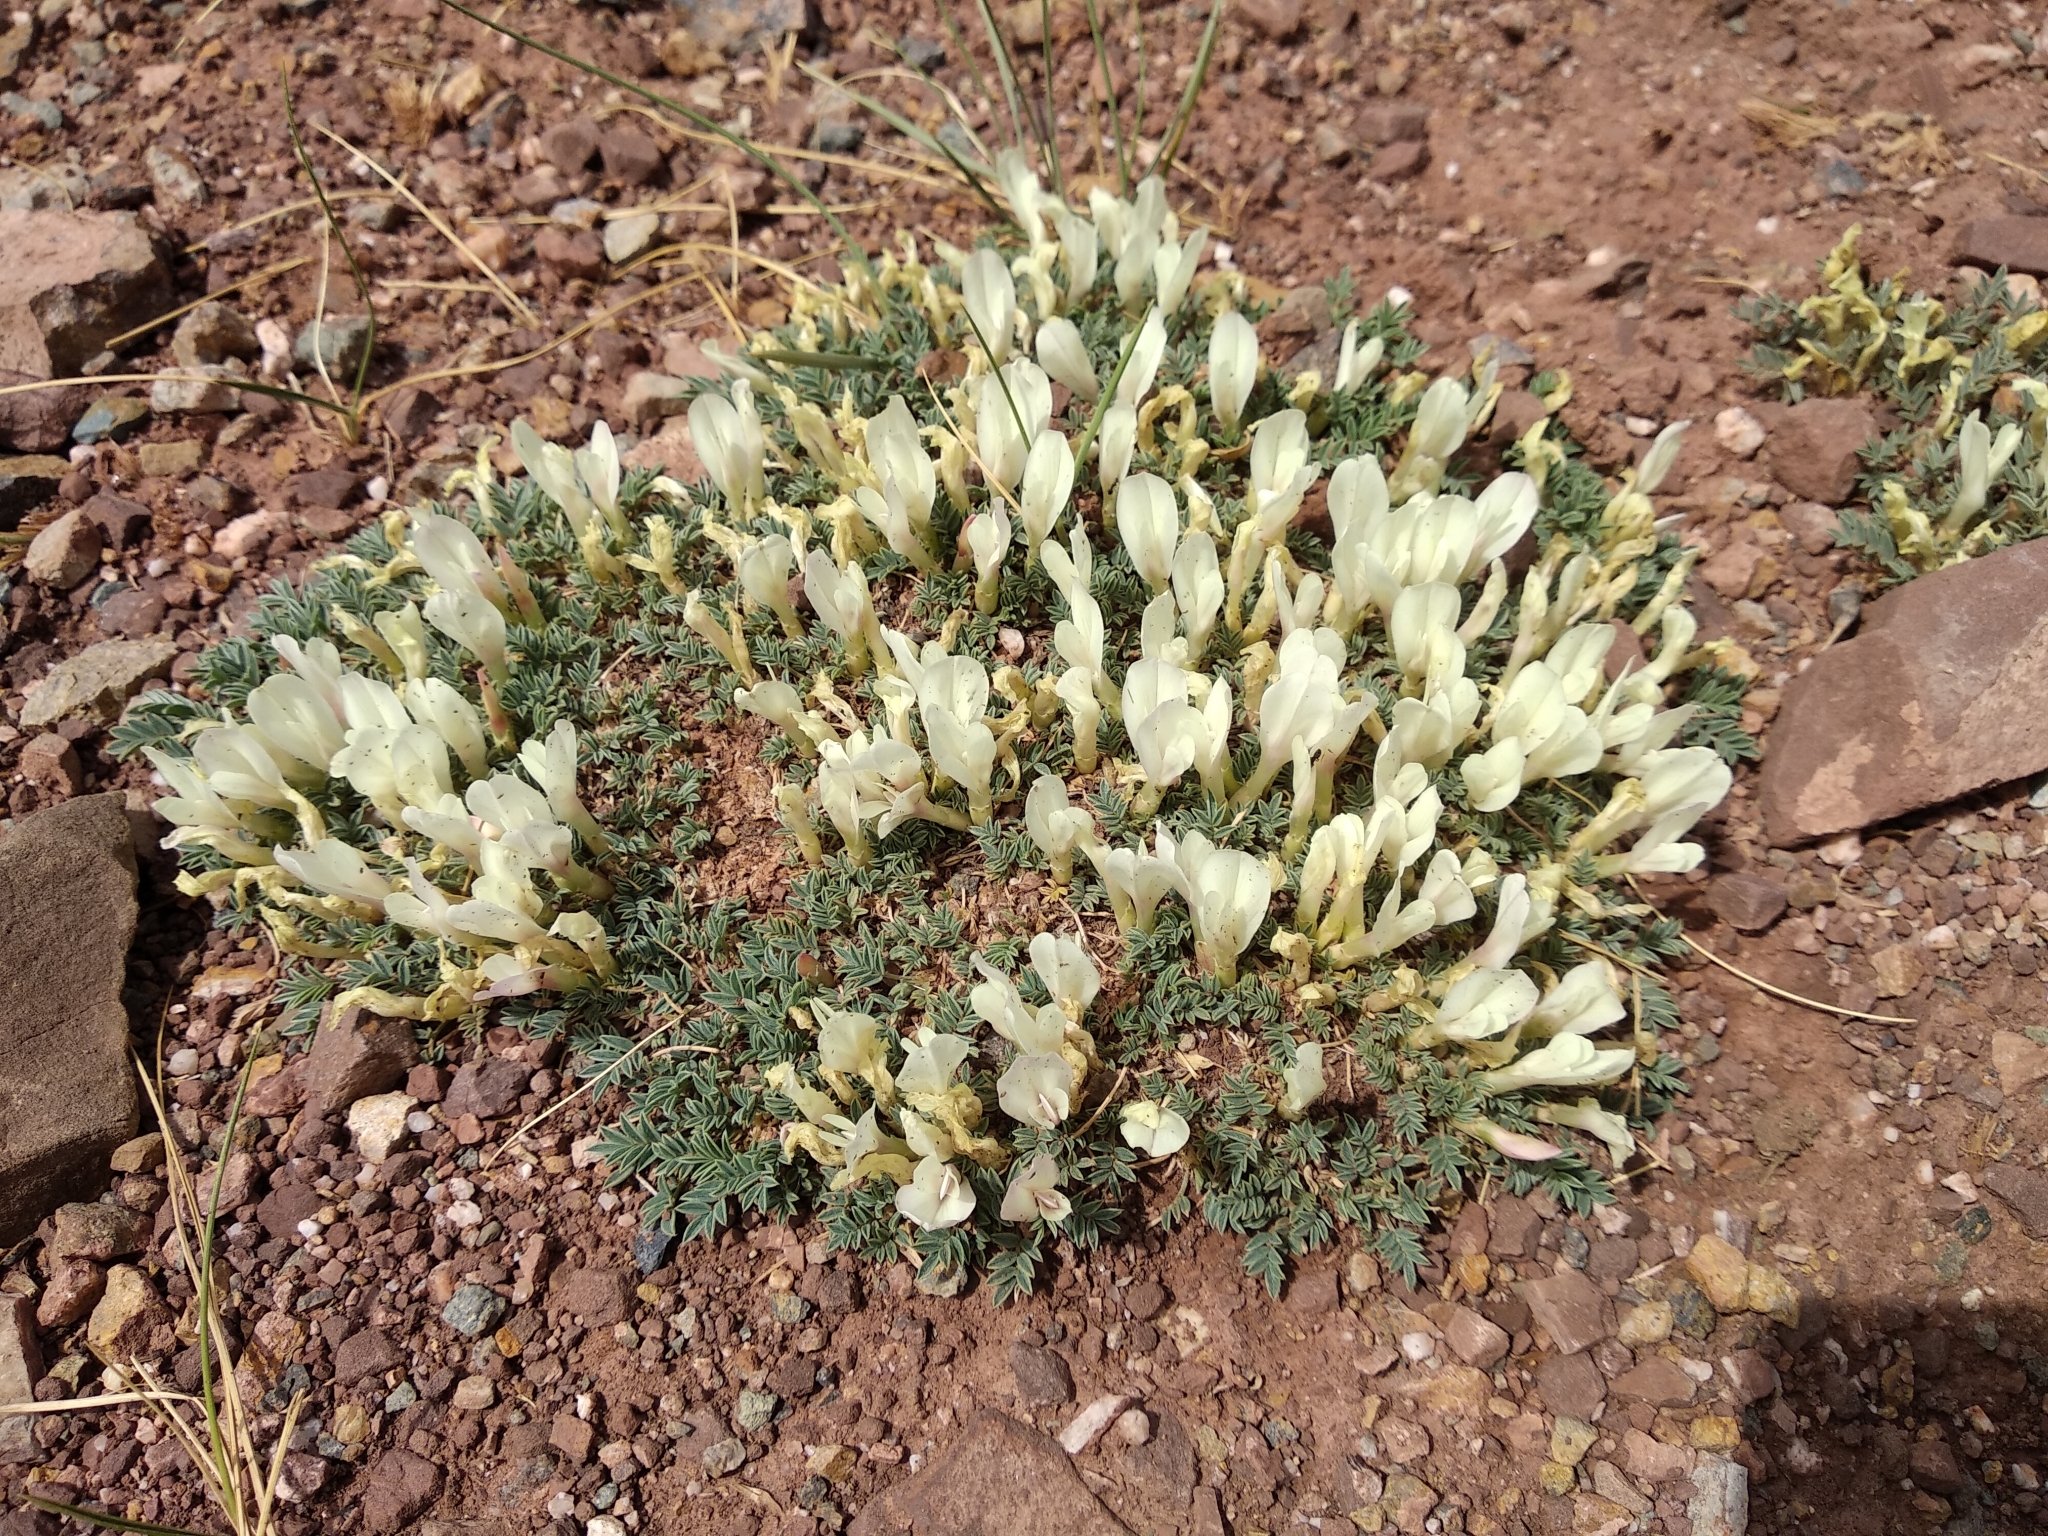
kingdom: Plantae
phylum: Tracheophyta
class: Magnoliopsida
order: Fabales
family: Fabaceae
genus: Astragalus
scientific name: Astragalus brevifolius
